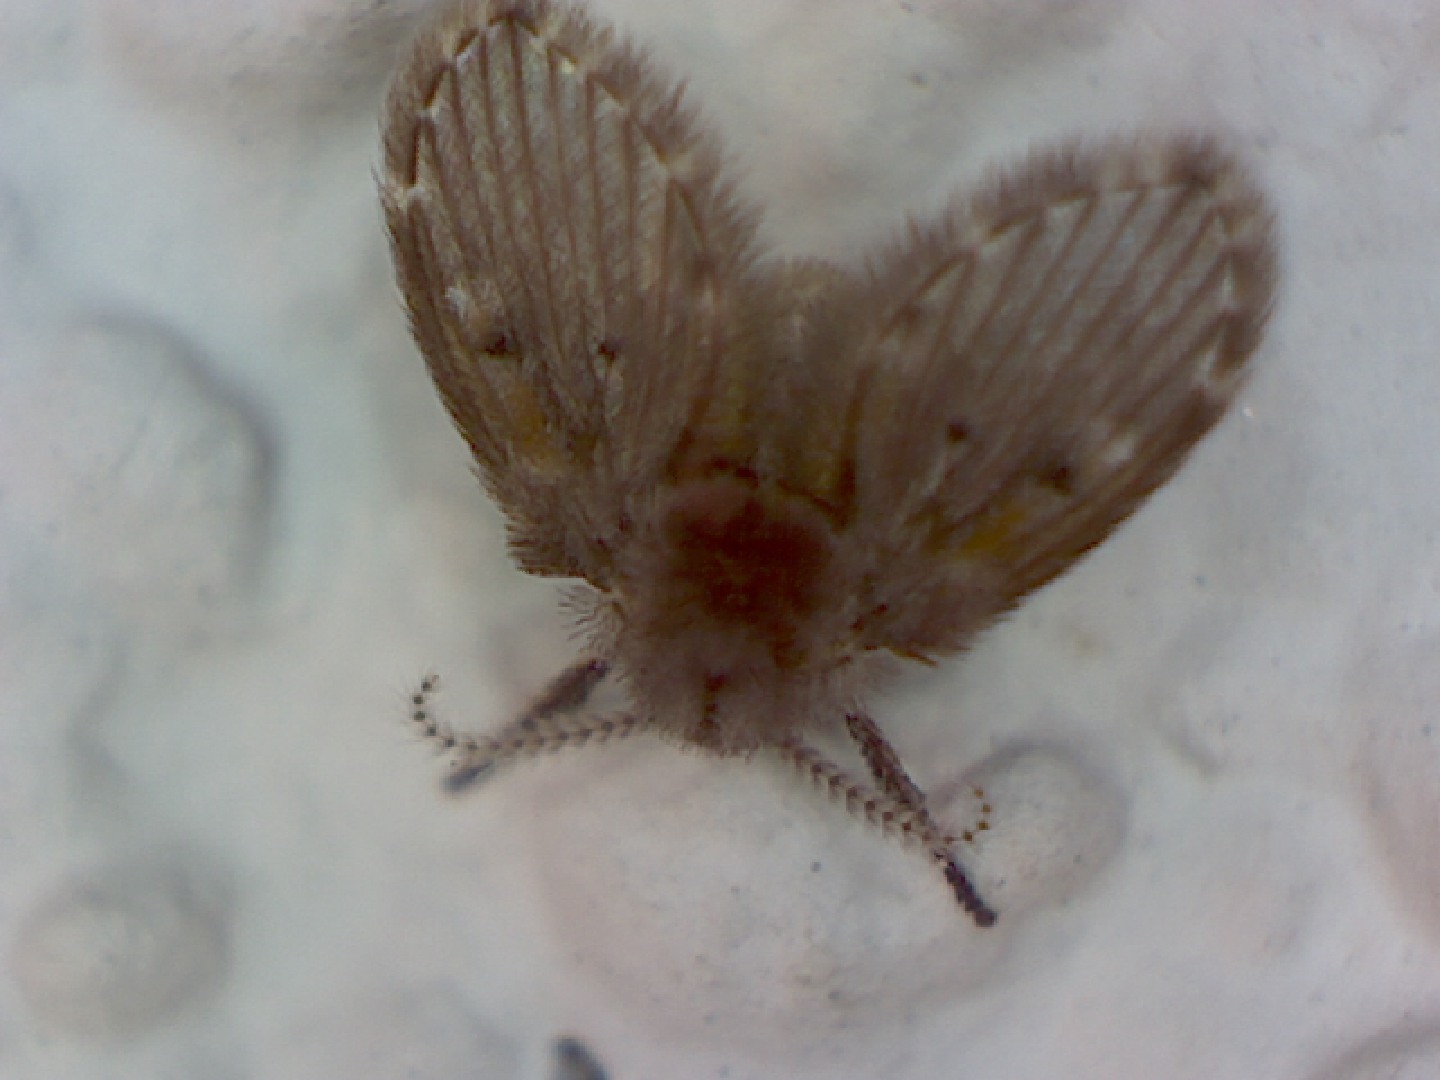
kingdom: Animalia
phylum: Arthropoda
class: Insecta
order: Diptera
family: Psychodidae
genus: Clogmia
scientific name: Clogmia albipunctatus
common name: White-spotted moth fly
